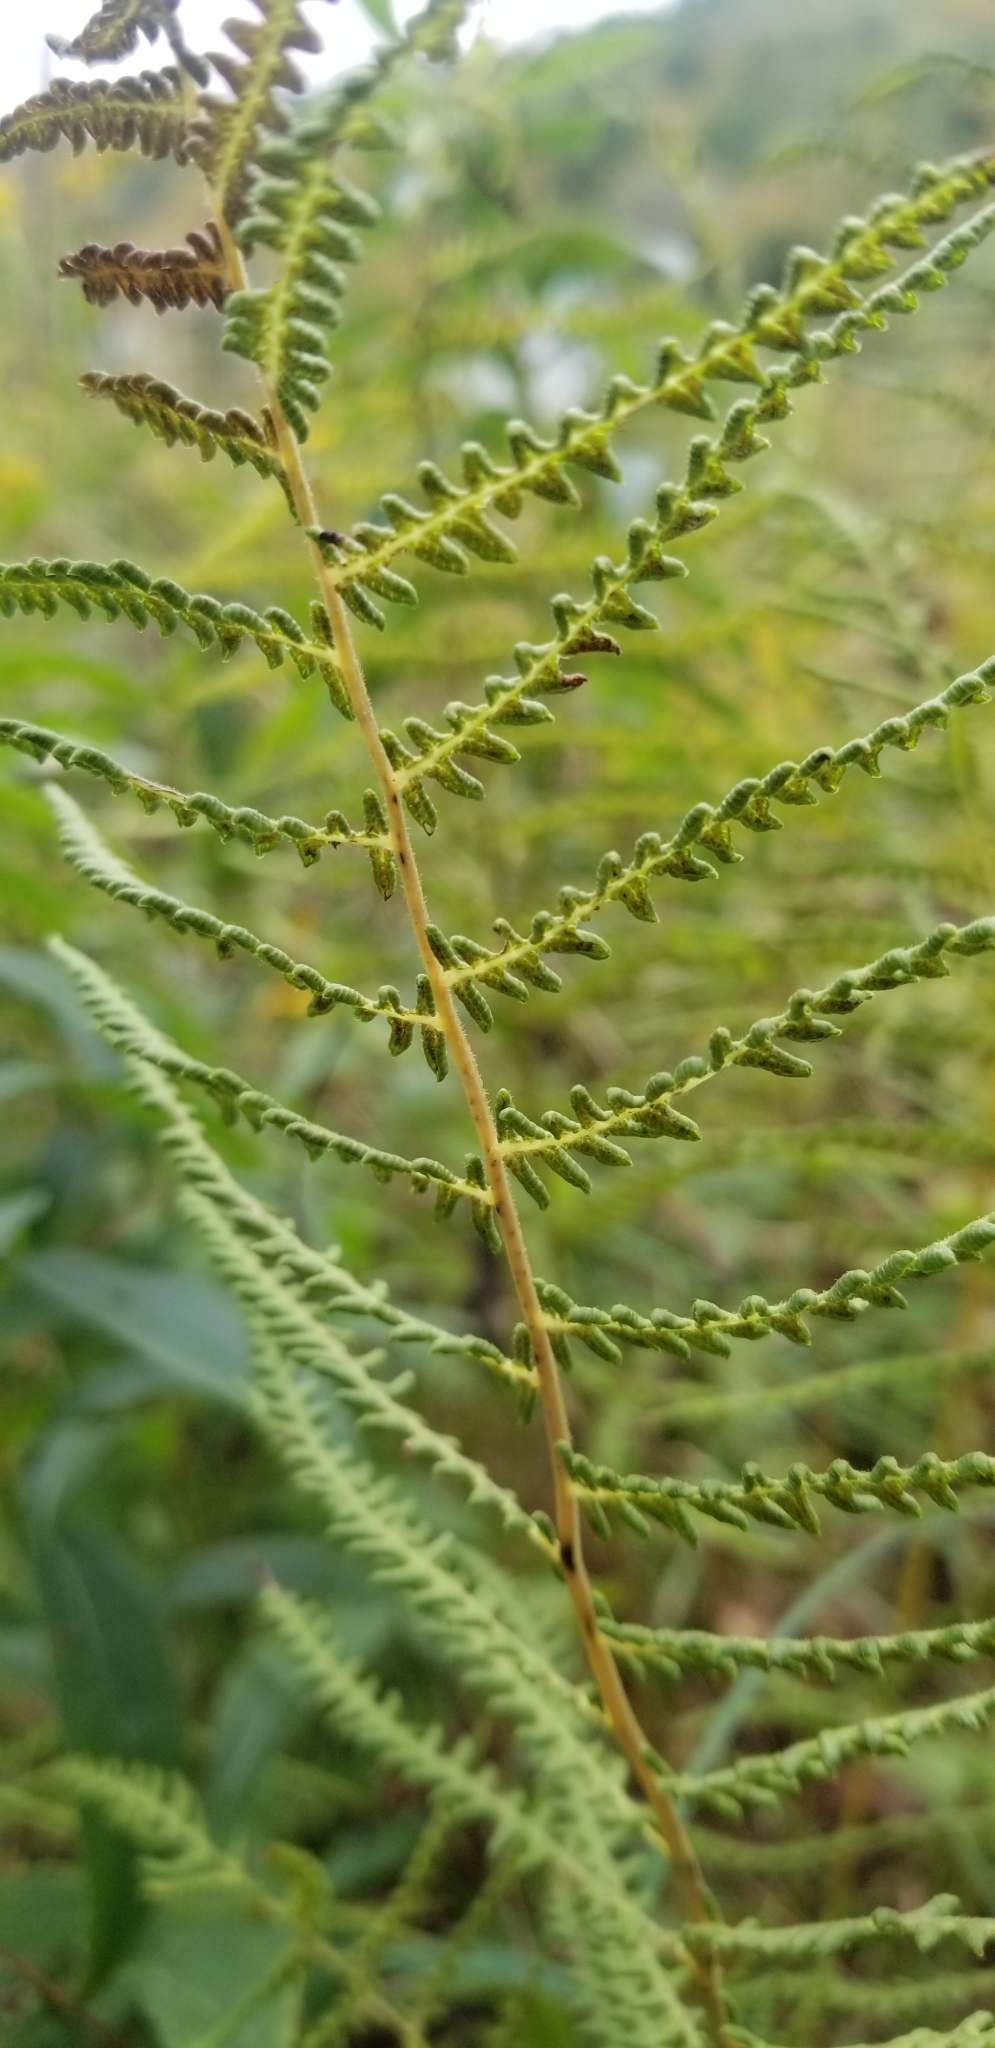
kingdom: Plantae
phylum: Tracheophyta
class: Polypodiopsida
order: Polypodiales
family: Thelypteridaceae
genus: Thelypteris
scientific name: Thelypteris palustris
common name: Marsh fern
